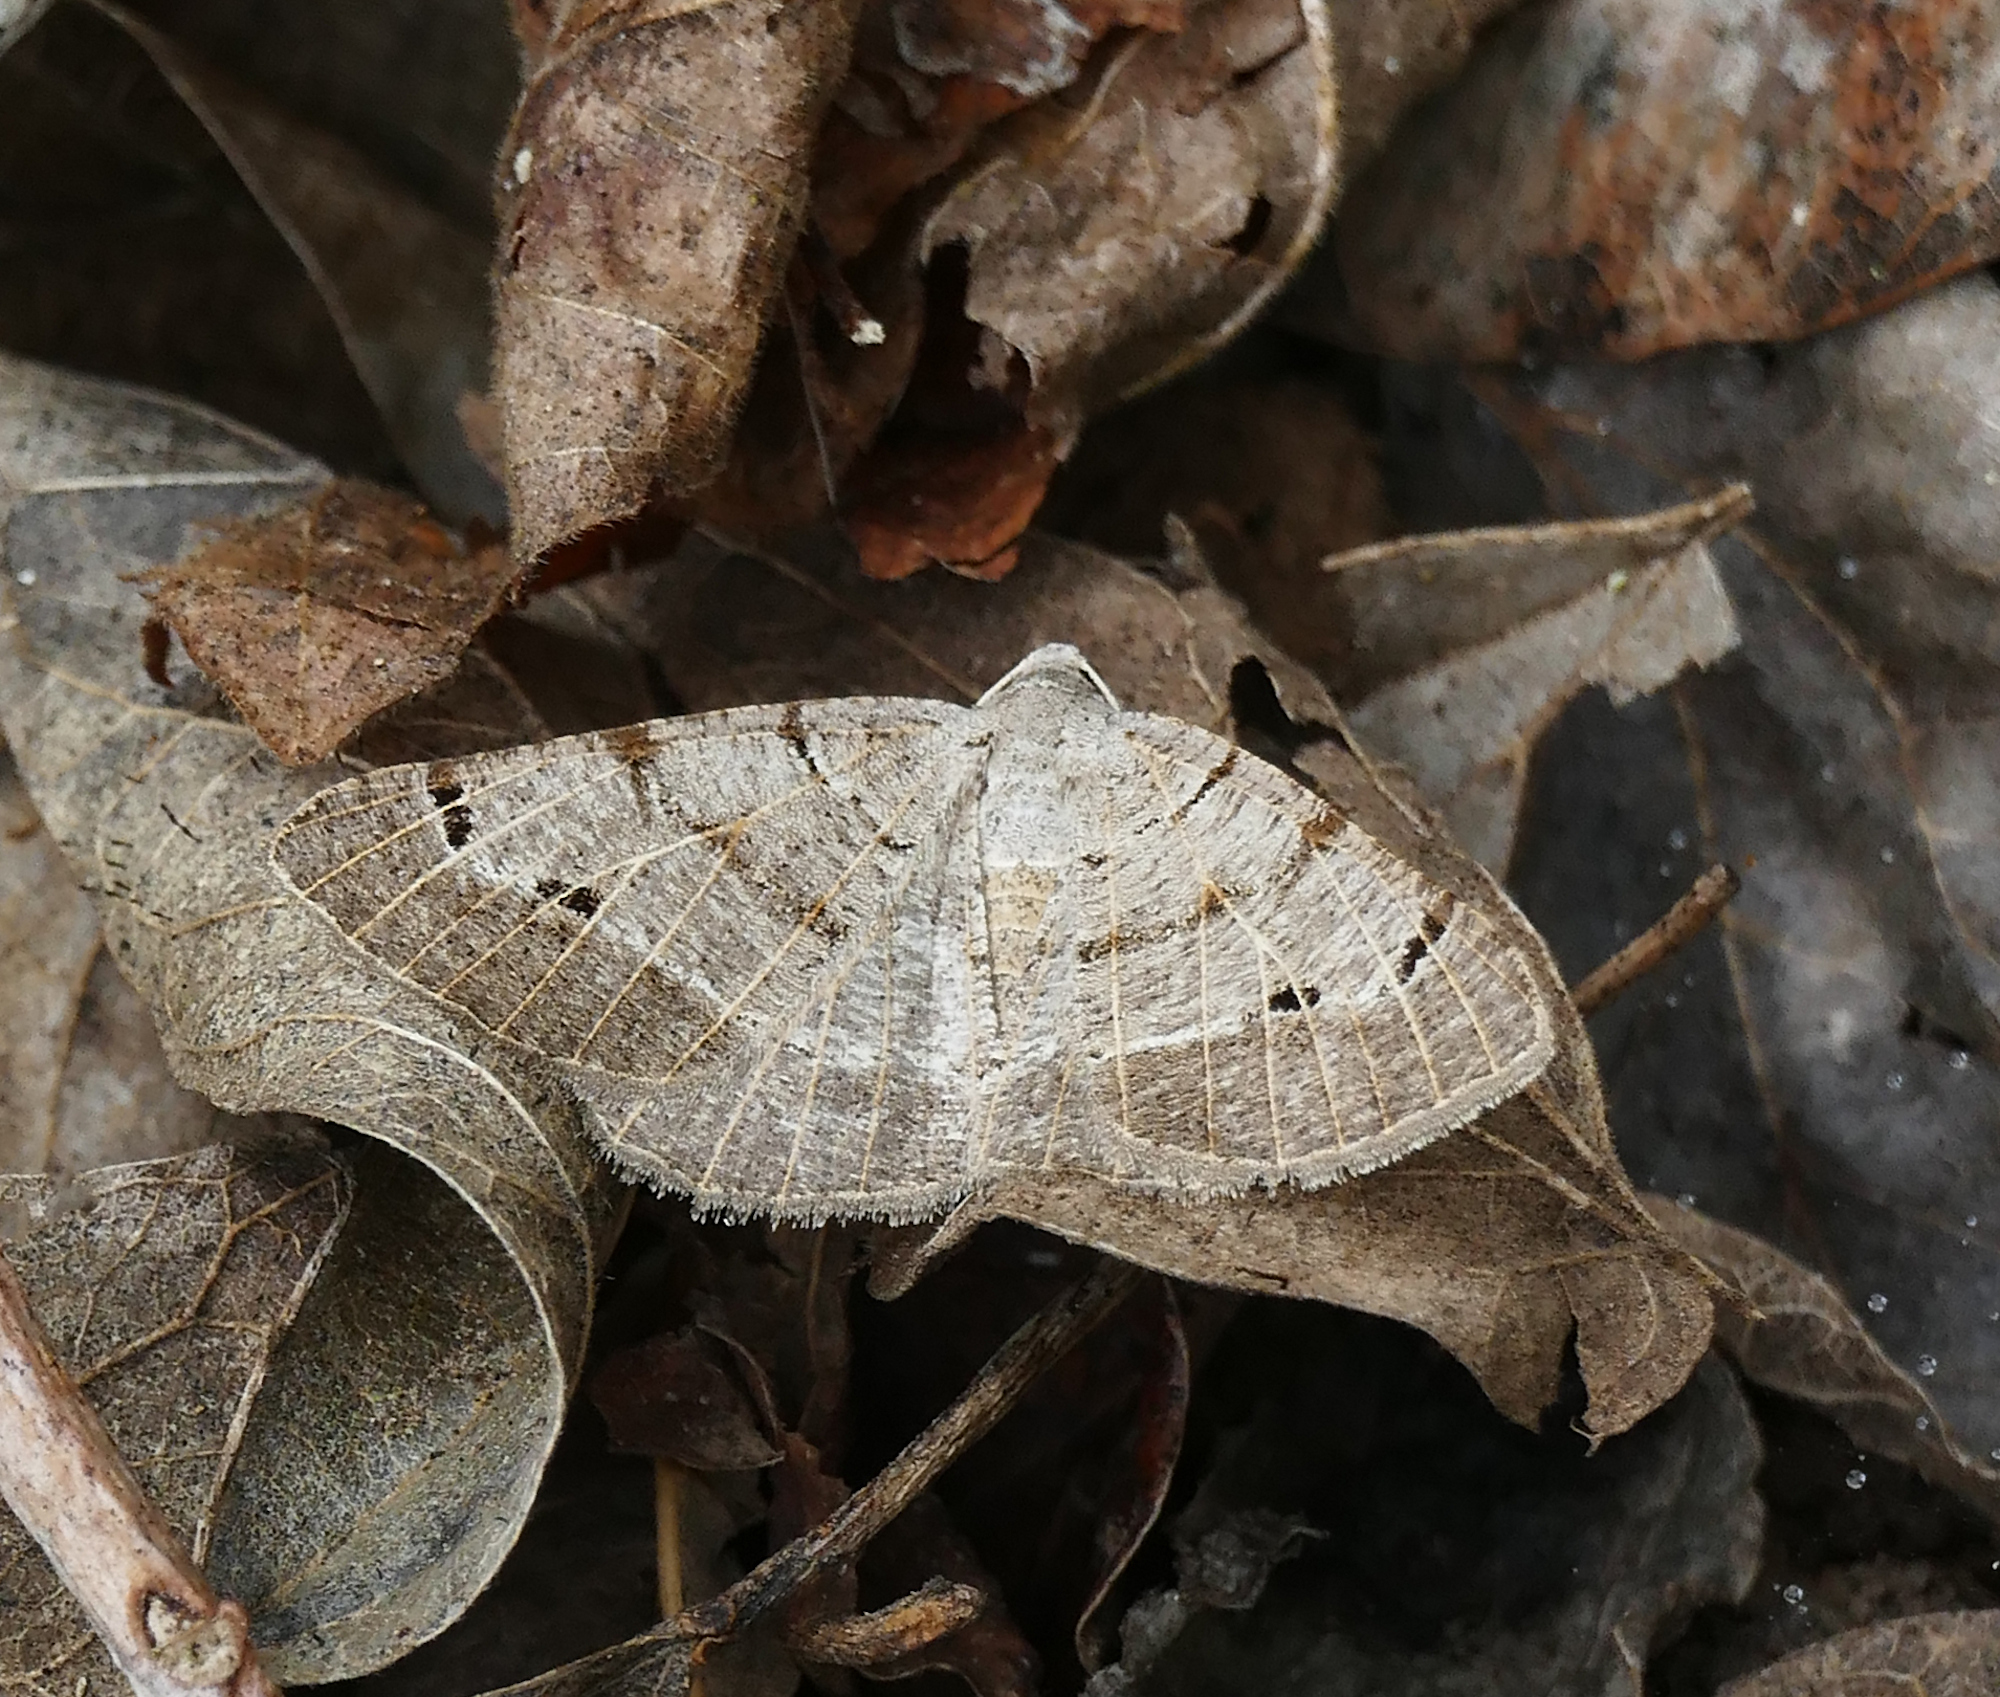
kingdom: Animalia
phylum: Arthropoda
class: Insecta
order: Lepidoptera
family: Geometridae
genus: Isturgia
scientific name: Isturgia dislocaria
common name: Pale-viened enconista
